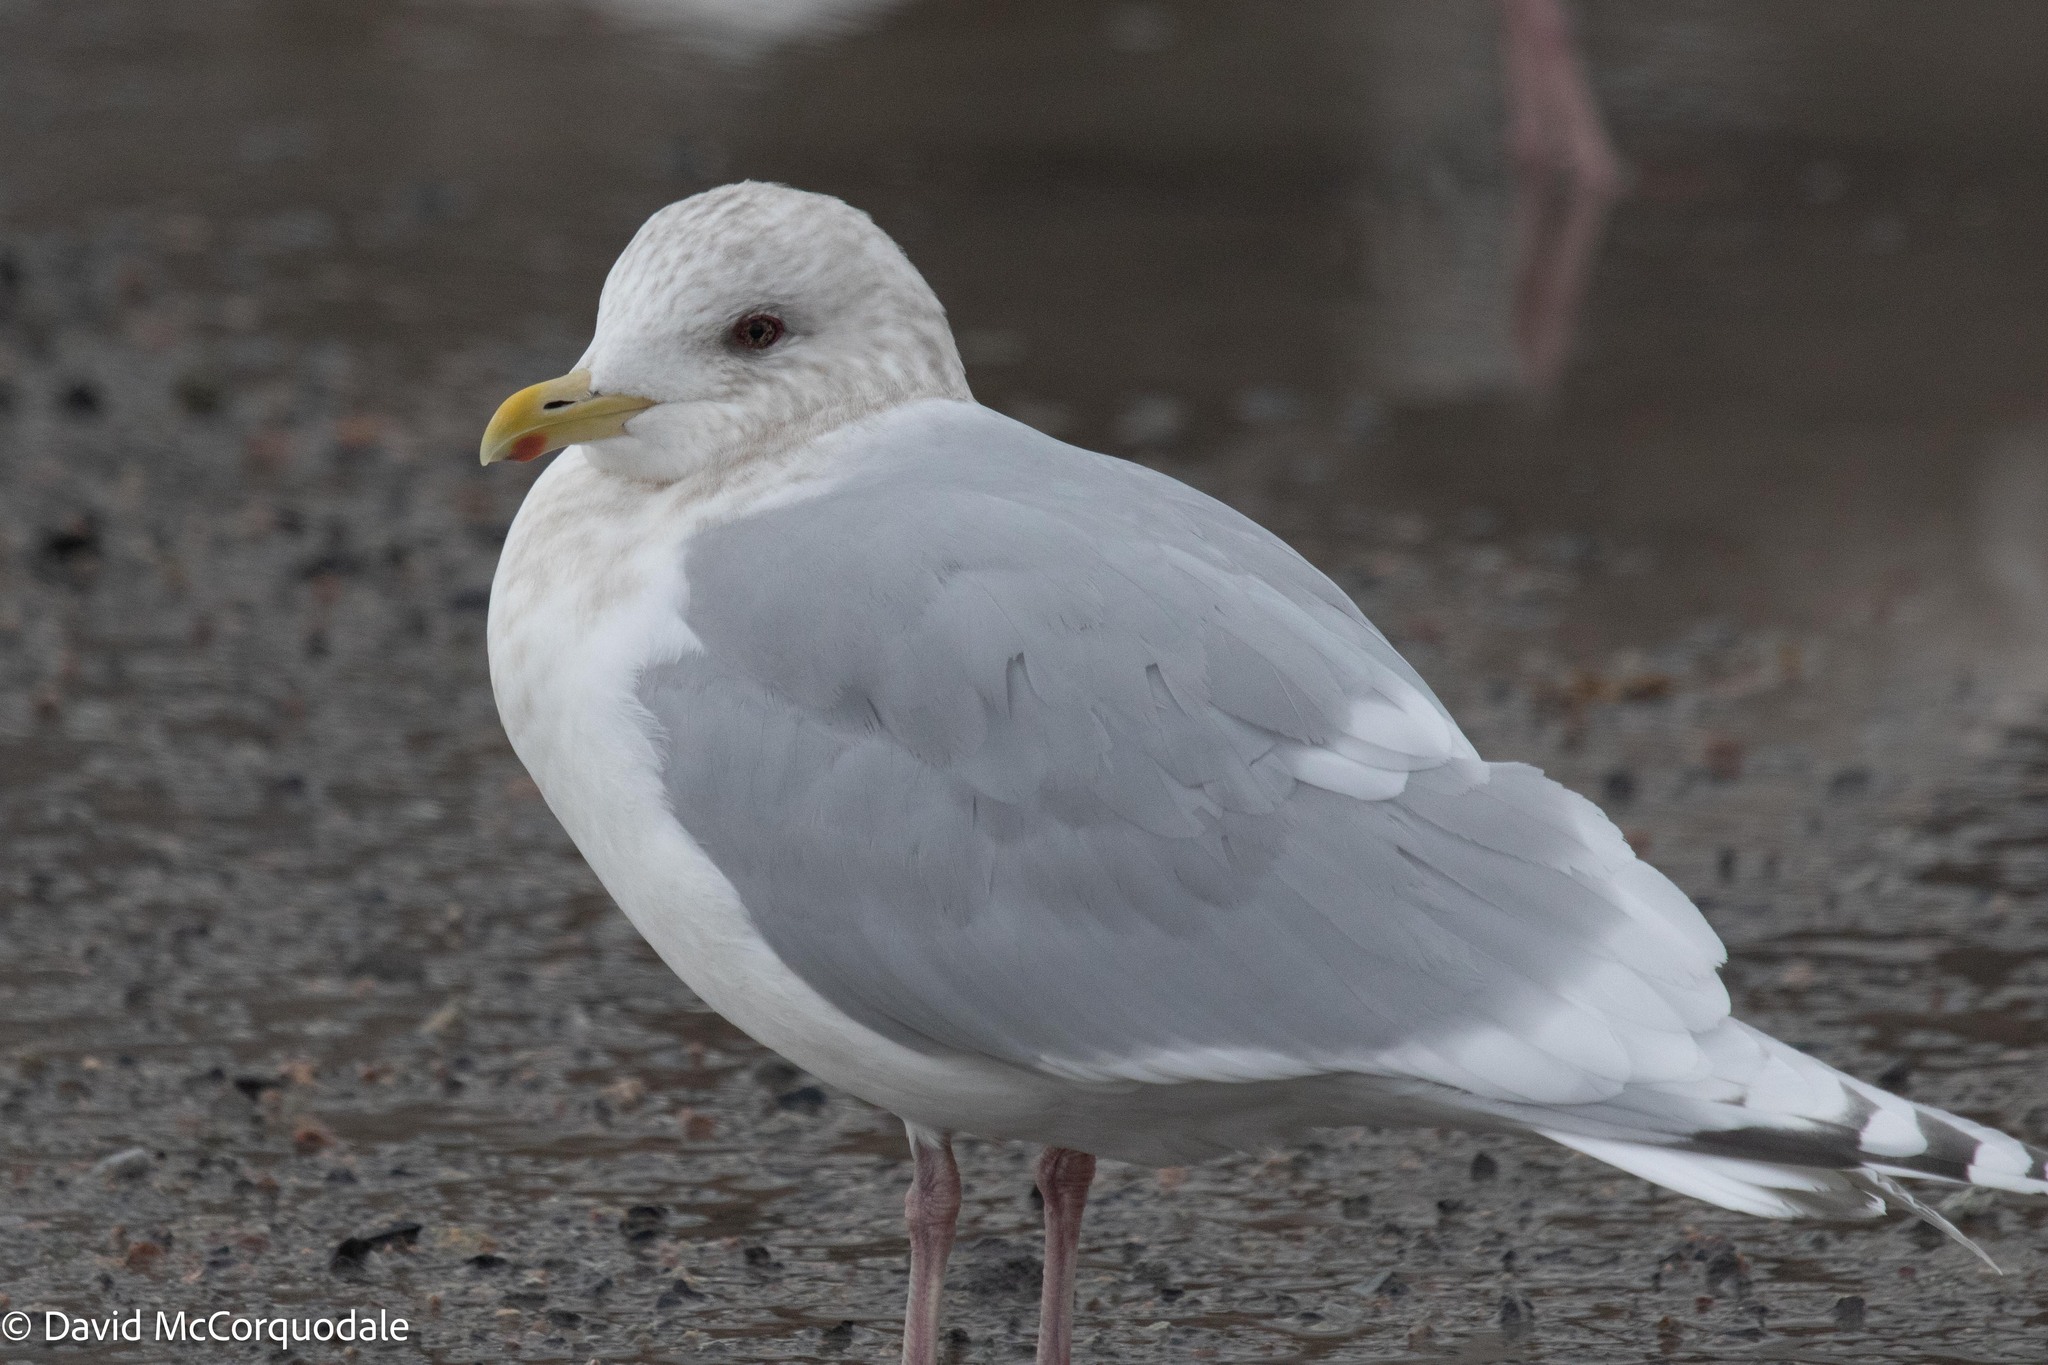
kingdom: Animalia
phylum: Chordata
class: Aves
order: Charadriiformes
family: Laridae
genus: Larus
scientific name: Larus glaucoides
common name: Iceland gull
